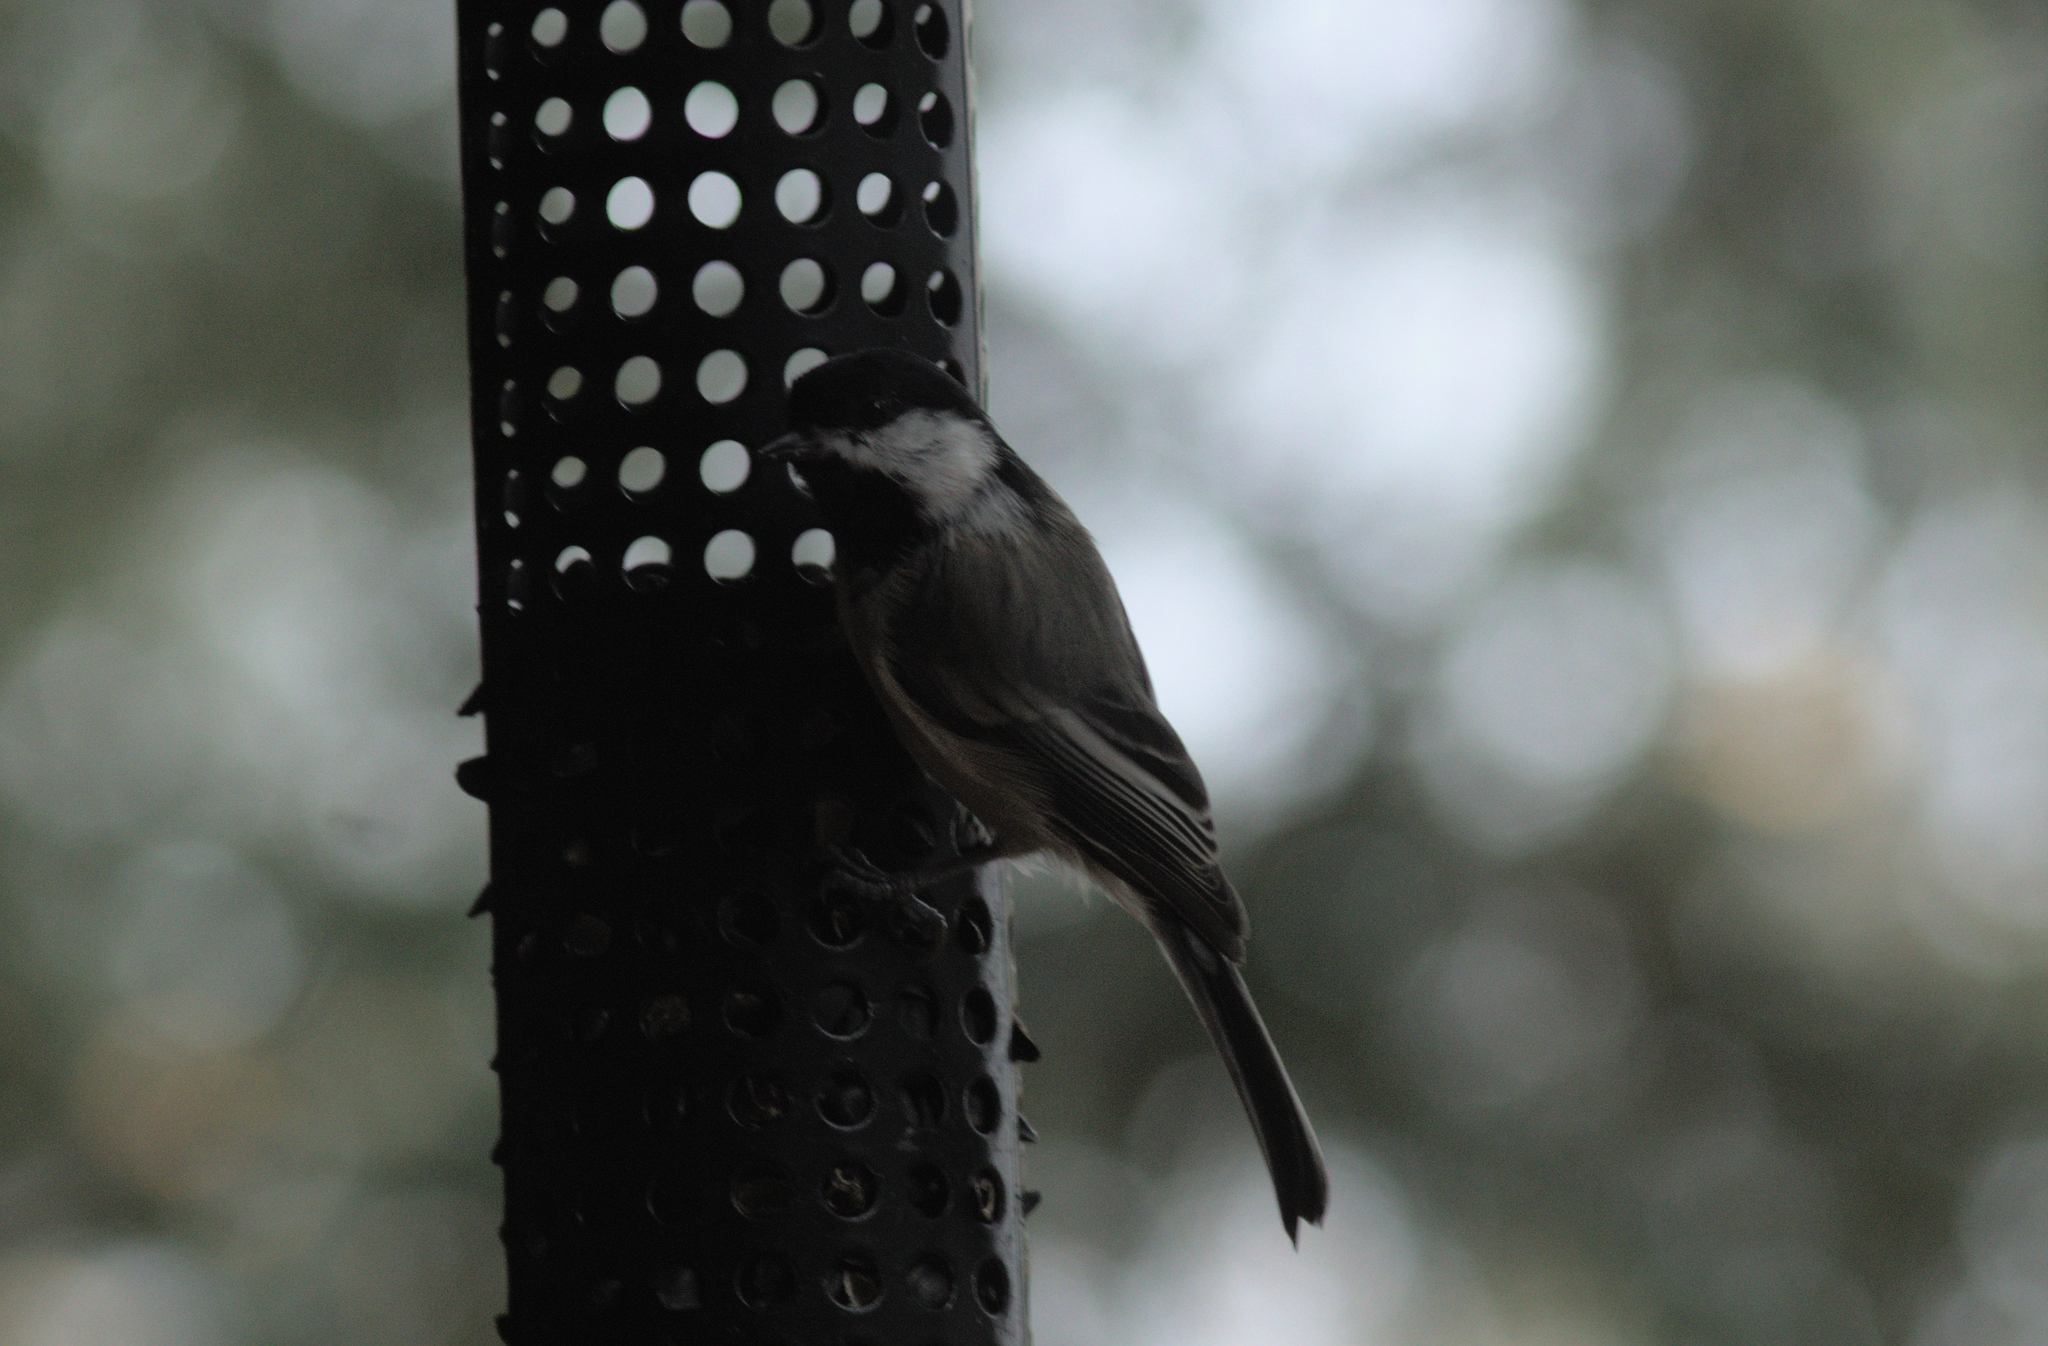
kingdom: Animalia
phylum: Chordata
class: Aves
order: Passeriformes
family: Paridae
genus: Poecile
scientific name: Poecile atricapillus
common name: Black-capped chickadee
